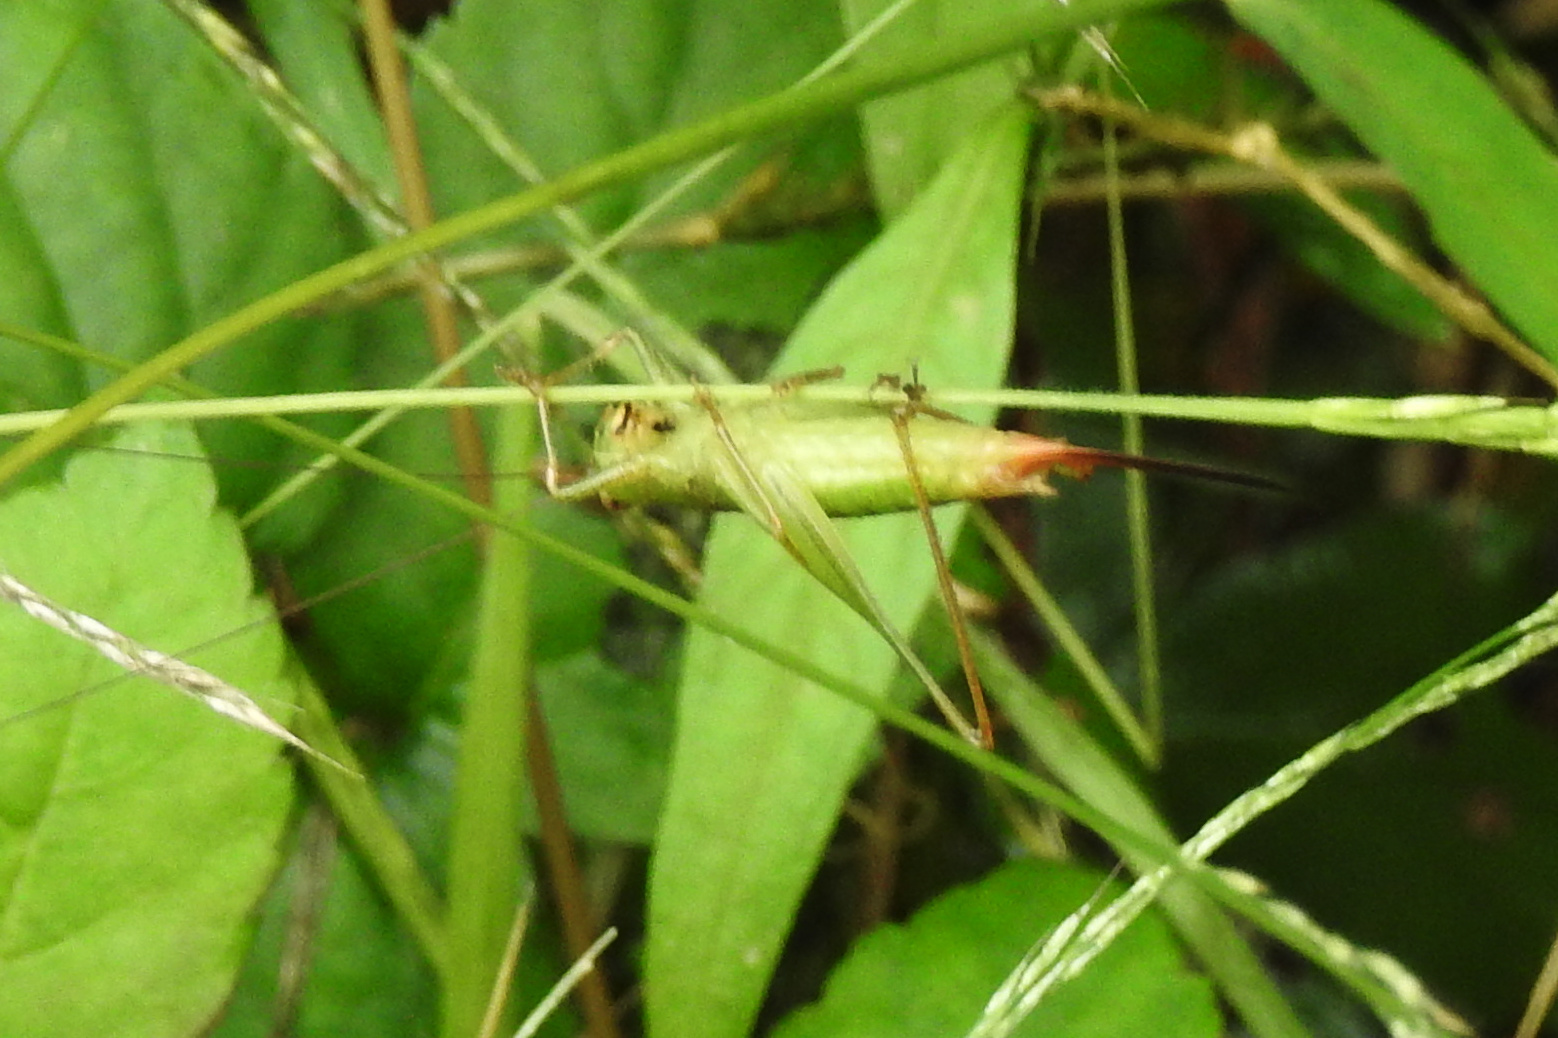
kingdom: Animalia
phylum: Arthropoda
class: Insecta
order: Orthoptera
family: Tettigoniidae
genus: Conocephalus
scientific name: Conocephalus brevipennis
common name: Short-winged meadow katydid
